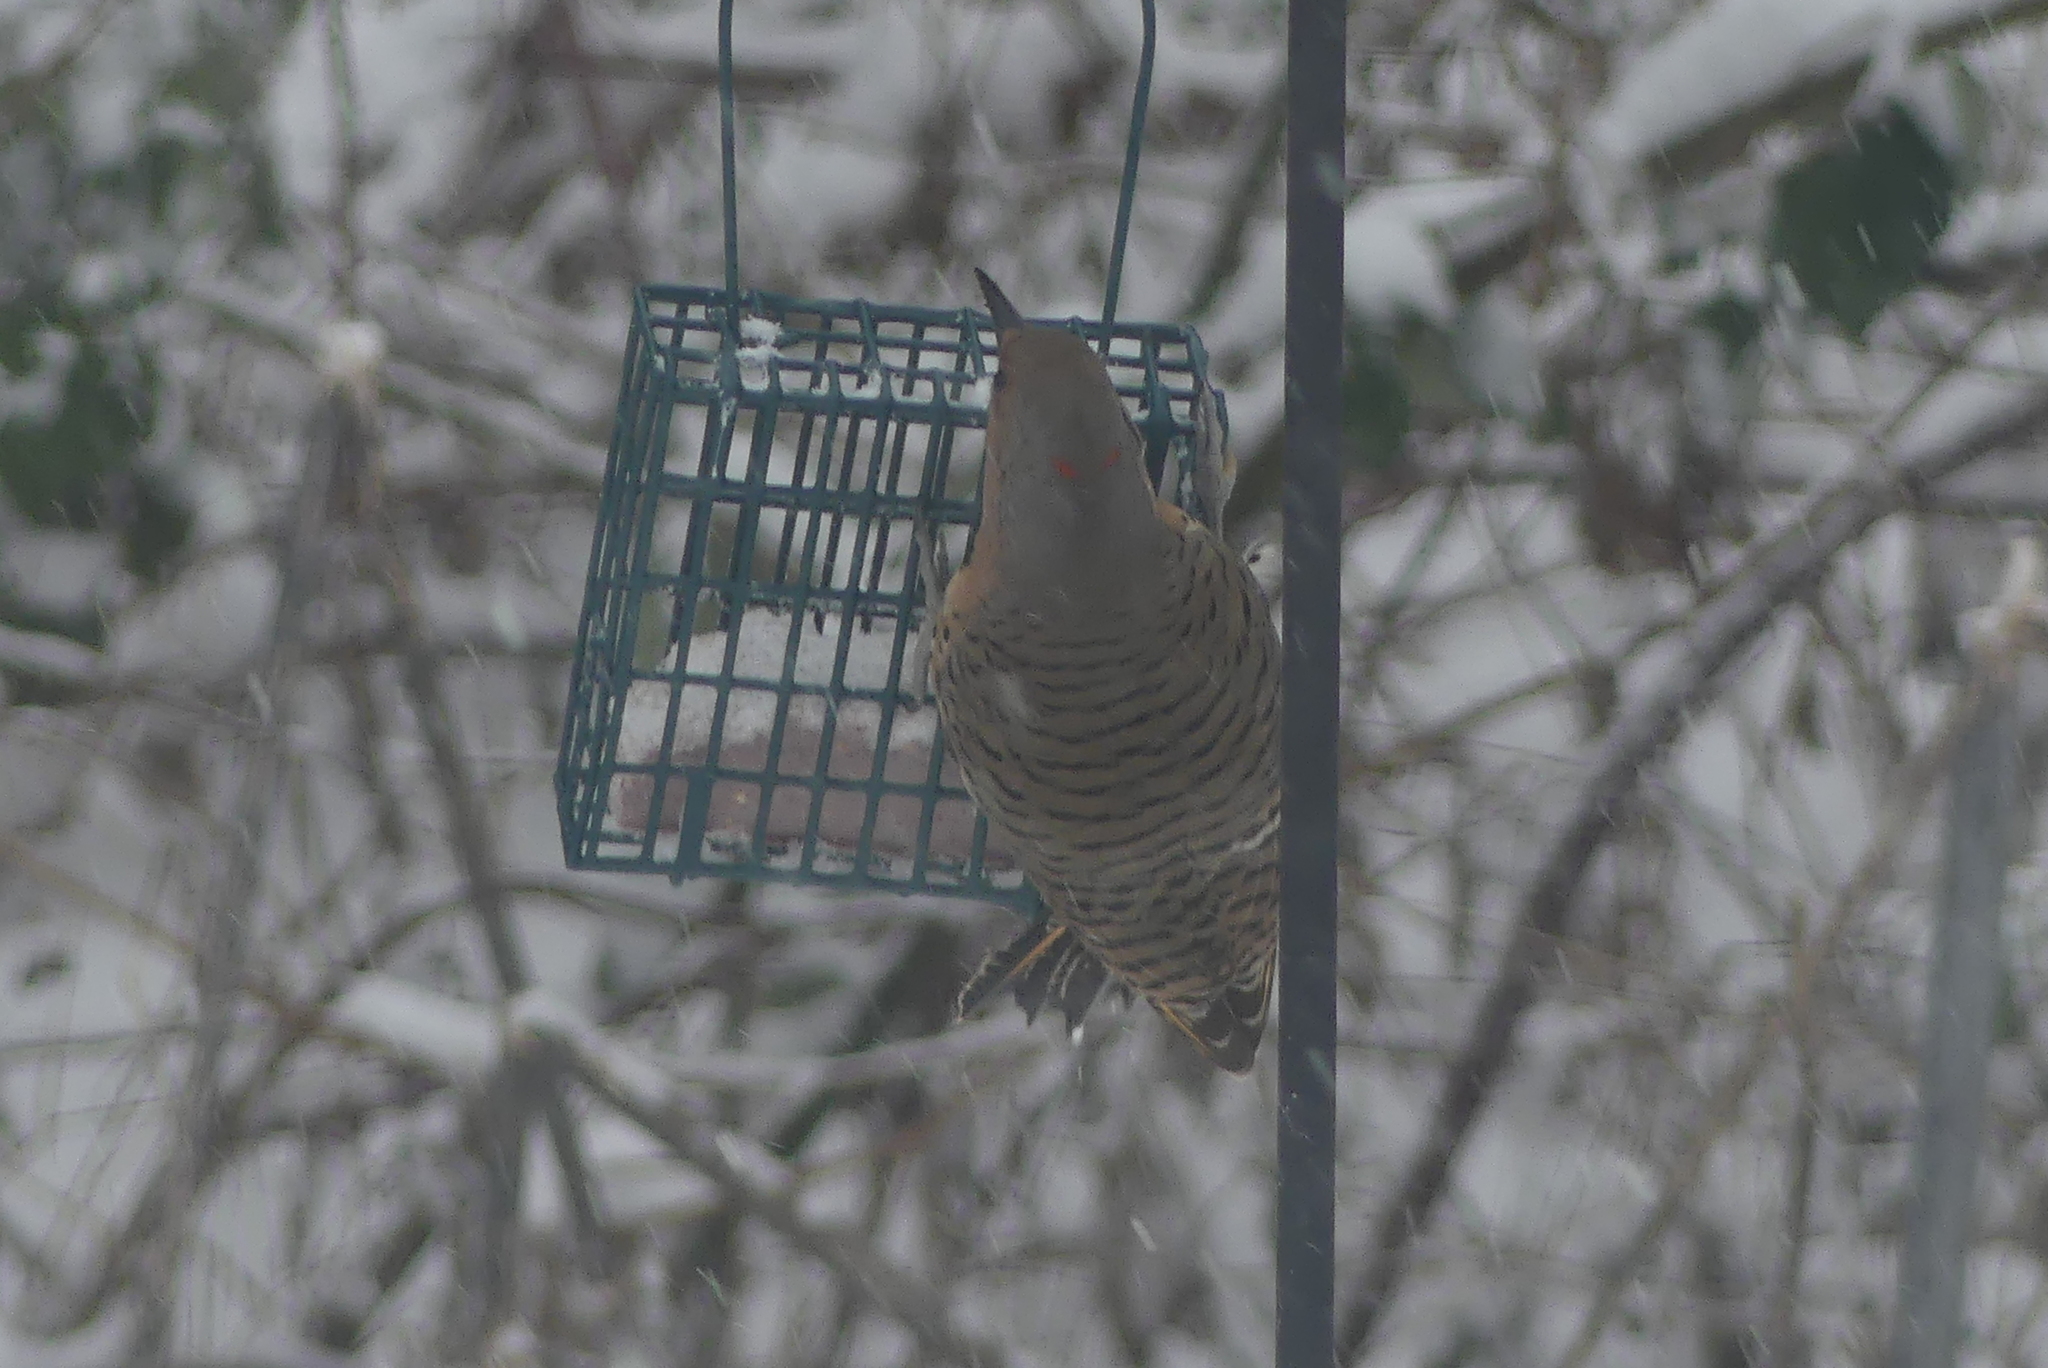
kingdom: Animalia
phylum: Chordata
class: Aves
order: Piciformes
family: Picidae
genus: Colaptes
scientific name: Colaptes auratus
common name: Northern flicker
